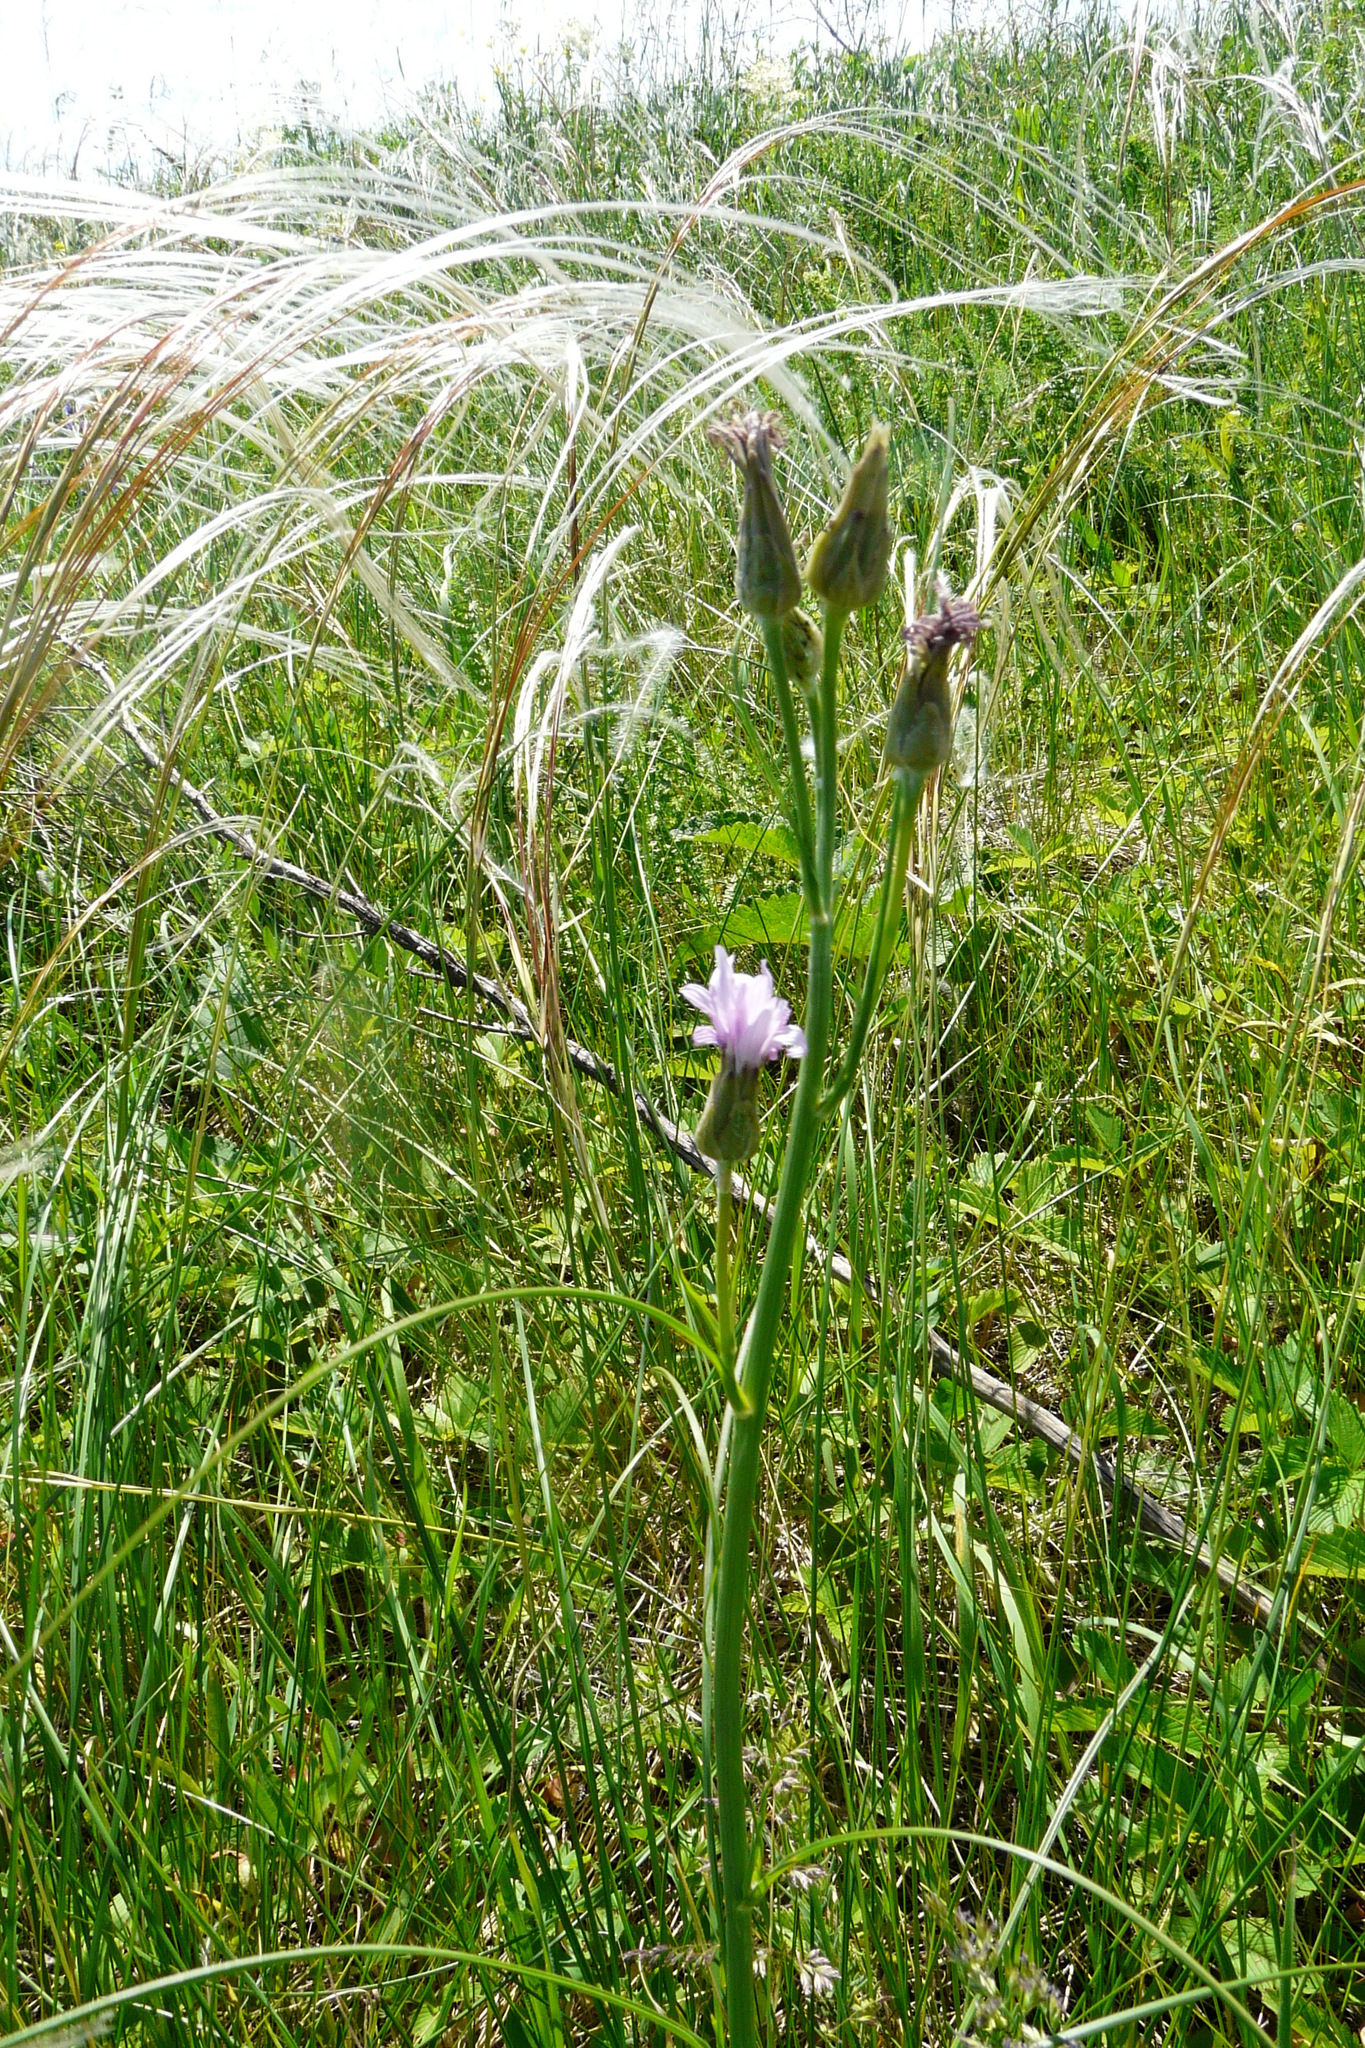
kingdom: Plantae
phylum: Tracheophyta
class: Magnoliopsida
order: Asterales
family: Asteraceae
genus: Scorzonera
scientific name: Scorzonera purpurea
